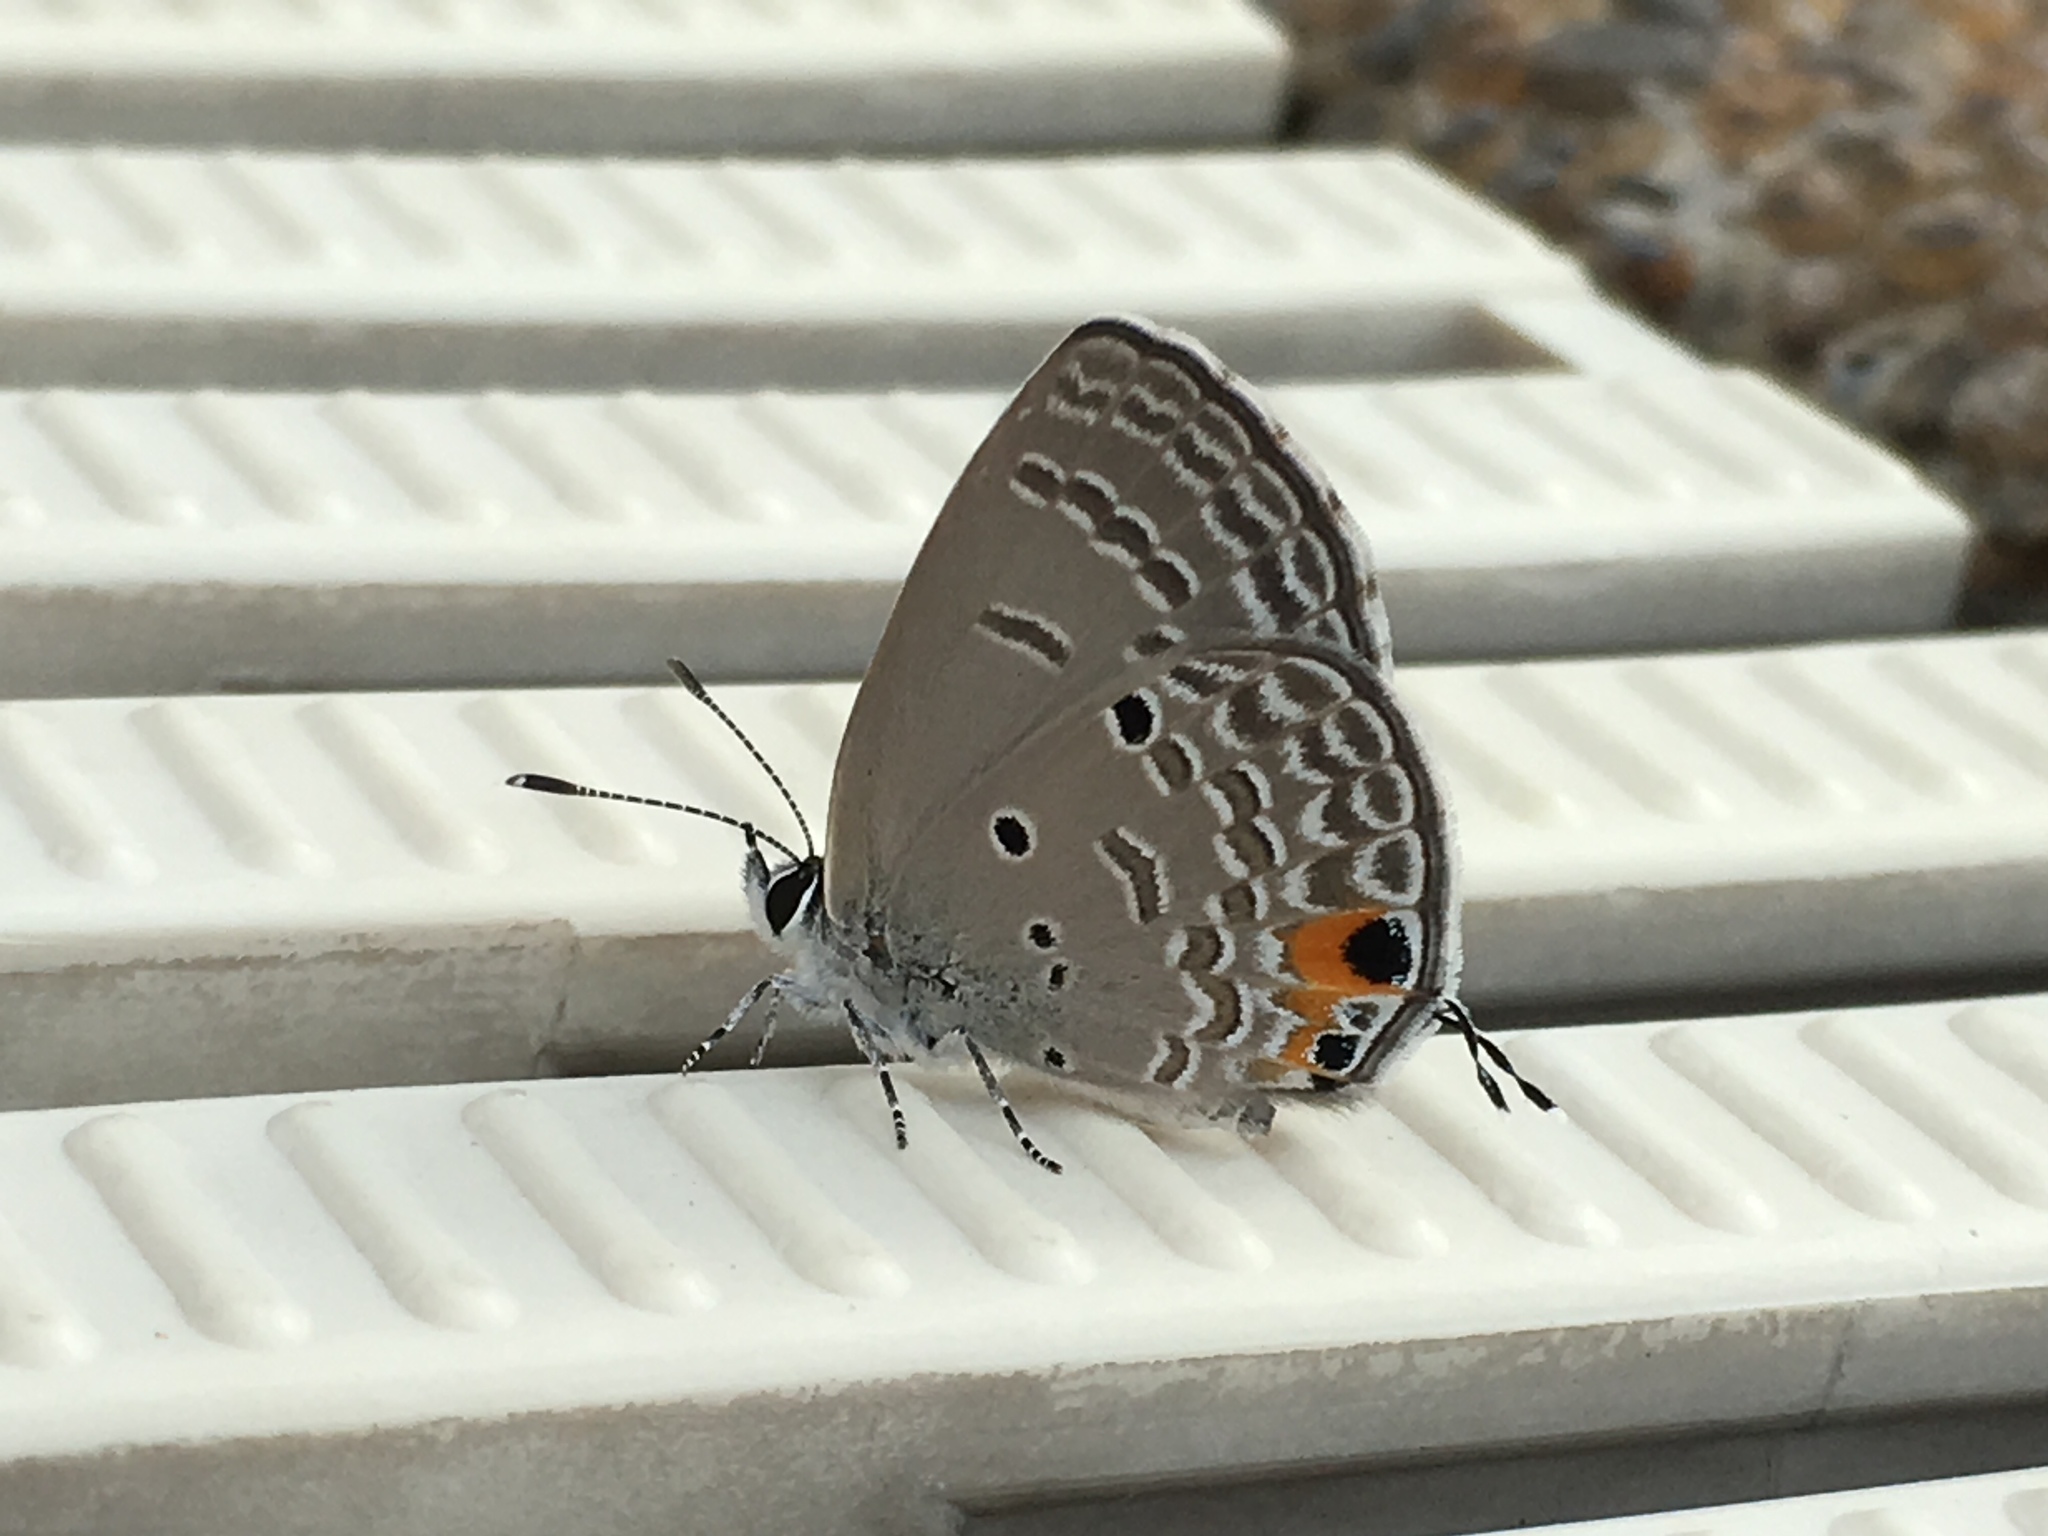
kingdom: Animalia
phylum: Arthropoda
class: Insecta
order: Lepidoptera
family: Lycaenidae
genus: Luthrodes
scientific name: Luthrodes pandava
